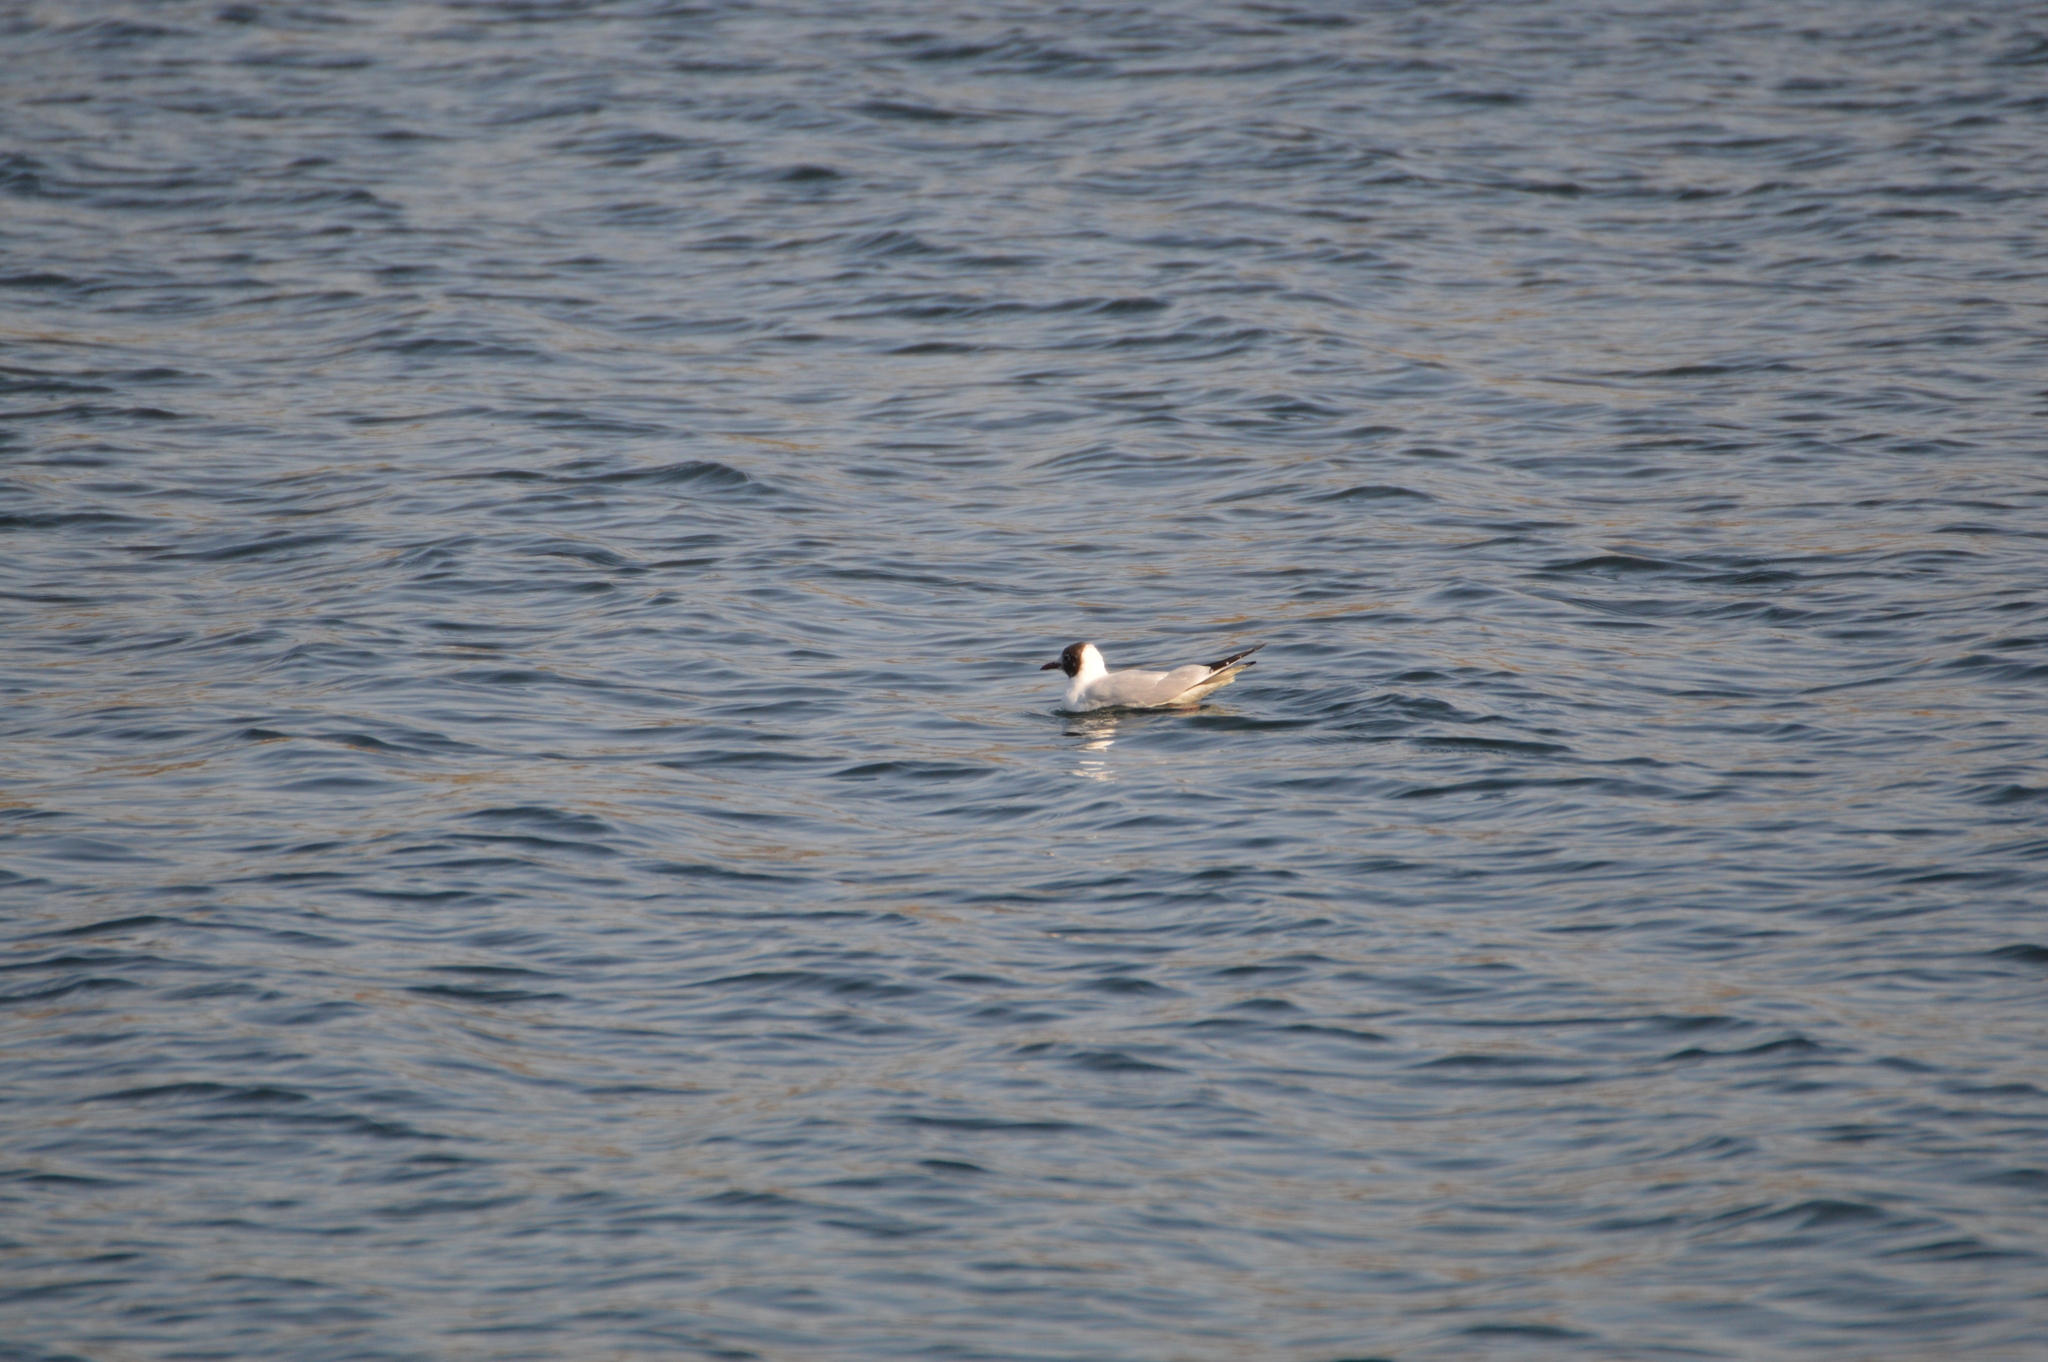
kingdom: Animalia
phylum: Chordata
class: Aves
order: Charadriiformes
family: Laridae
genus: Chroicocephalus
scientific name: Chroicocephalus ridibundus
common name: Black-headed gull
